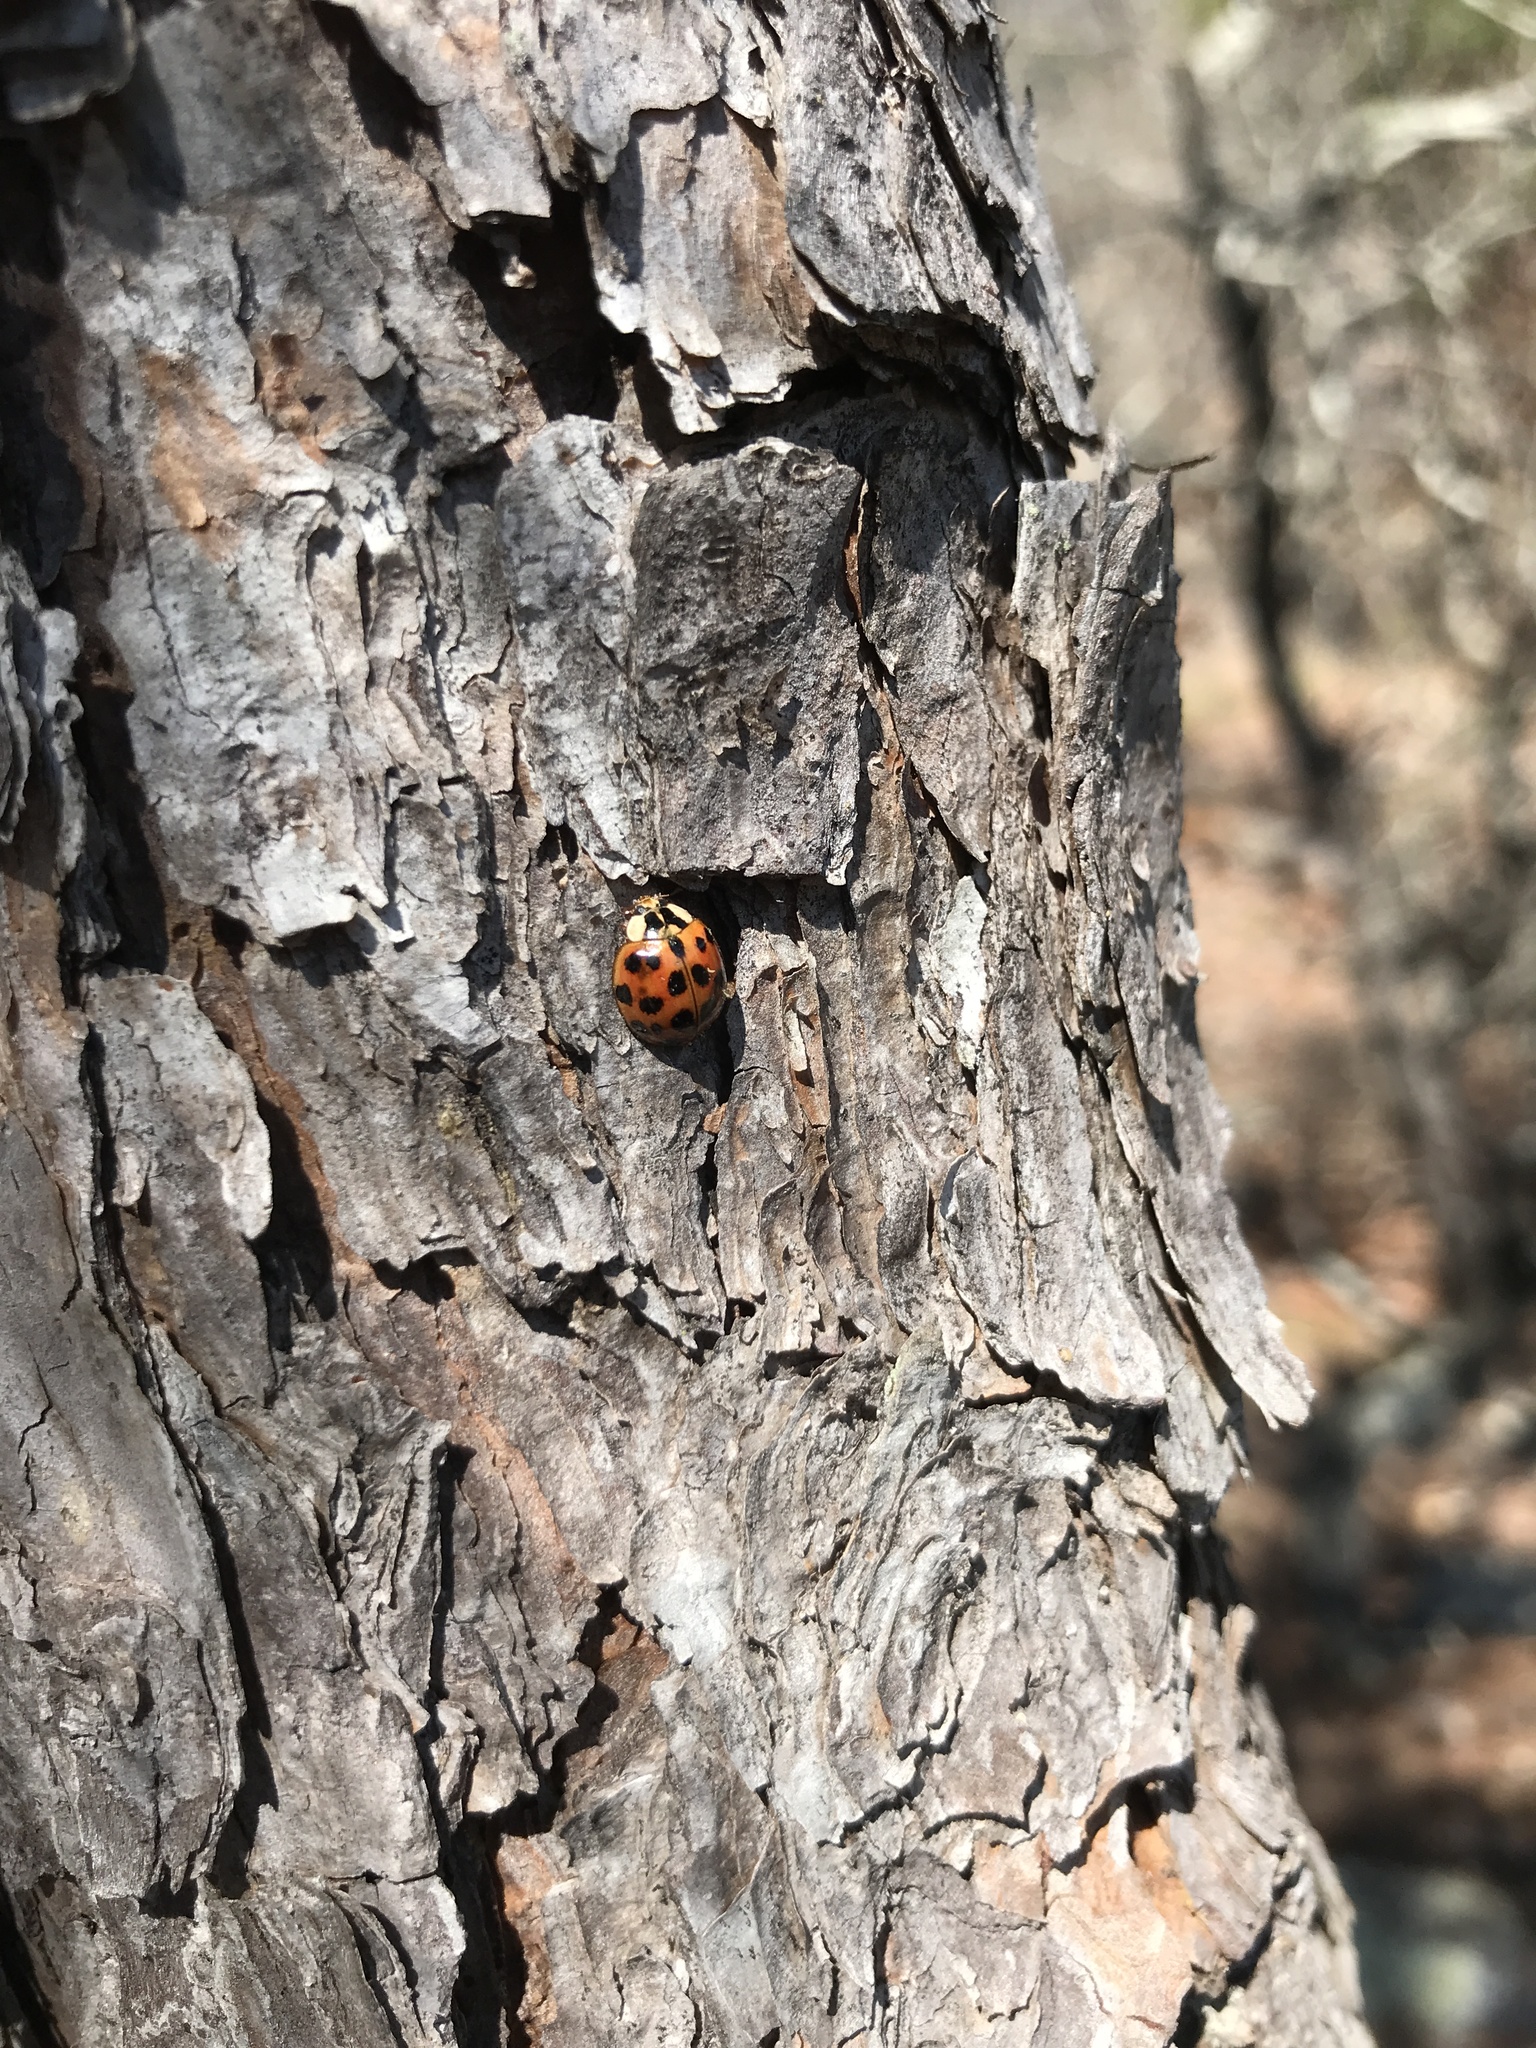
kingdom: Animalia
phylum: Arthropoda
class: Insecta
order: Coleoptera
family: Coccinellidae
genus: Harmonia
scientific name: Harmonia axyridis
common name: Harlequin ladybird
